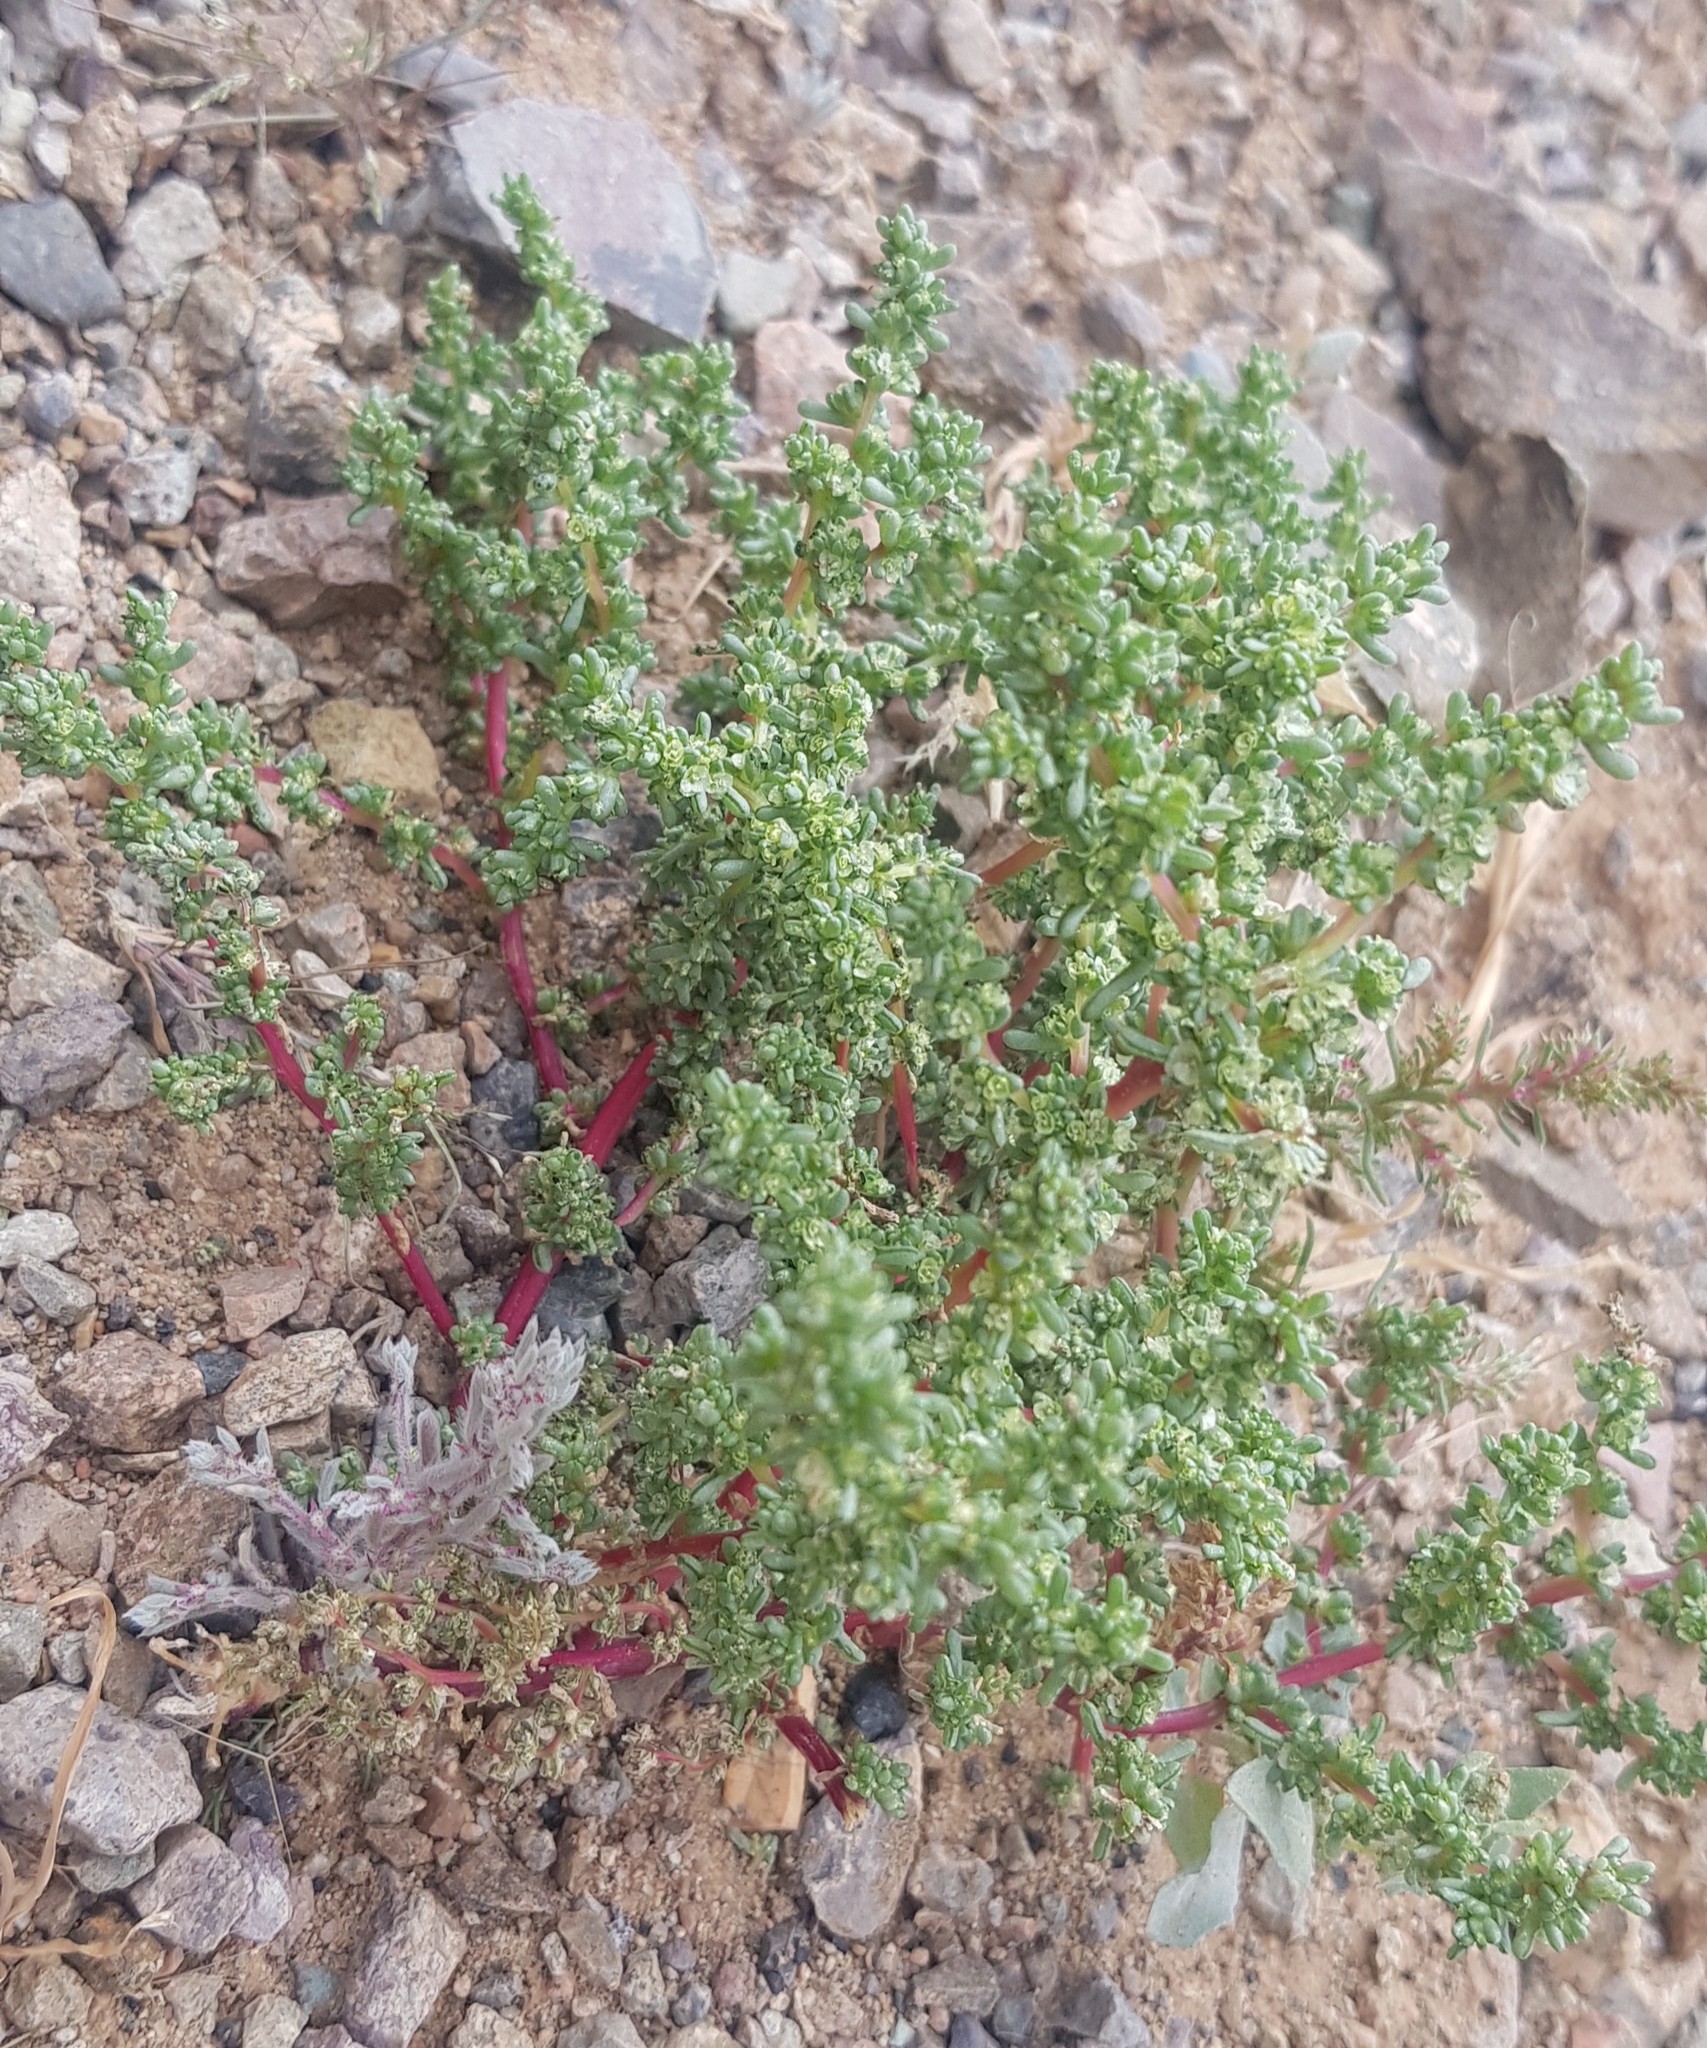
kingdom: Plantae
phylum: Tracheophyta
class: Magnoliopsida
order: Caryophyllales
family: Amaranthaceae
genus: Halogeton
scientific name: Halogeton arachnoides
